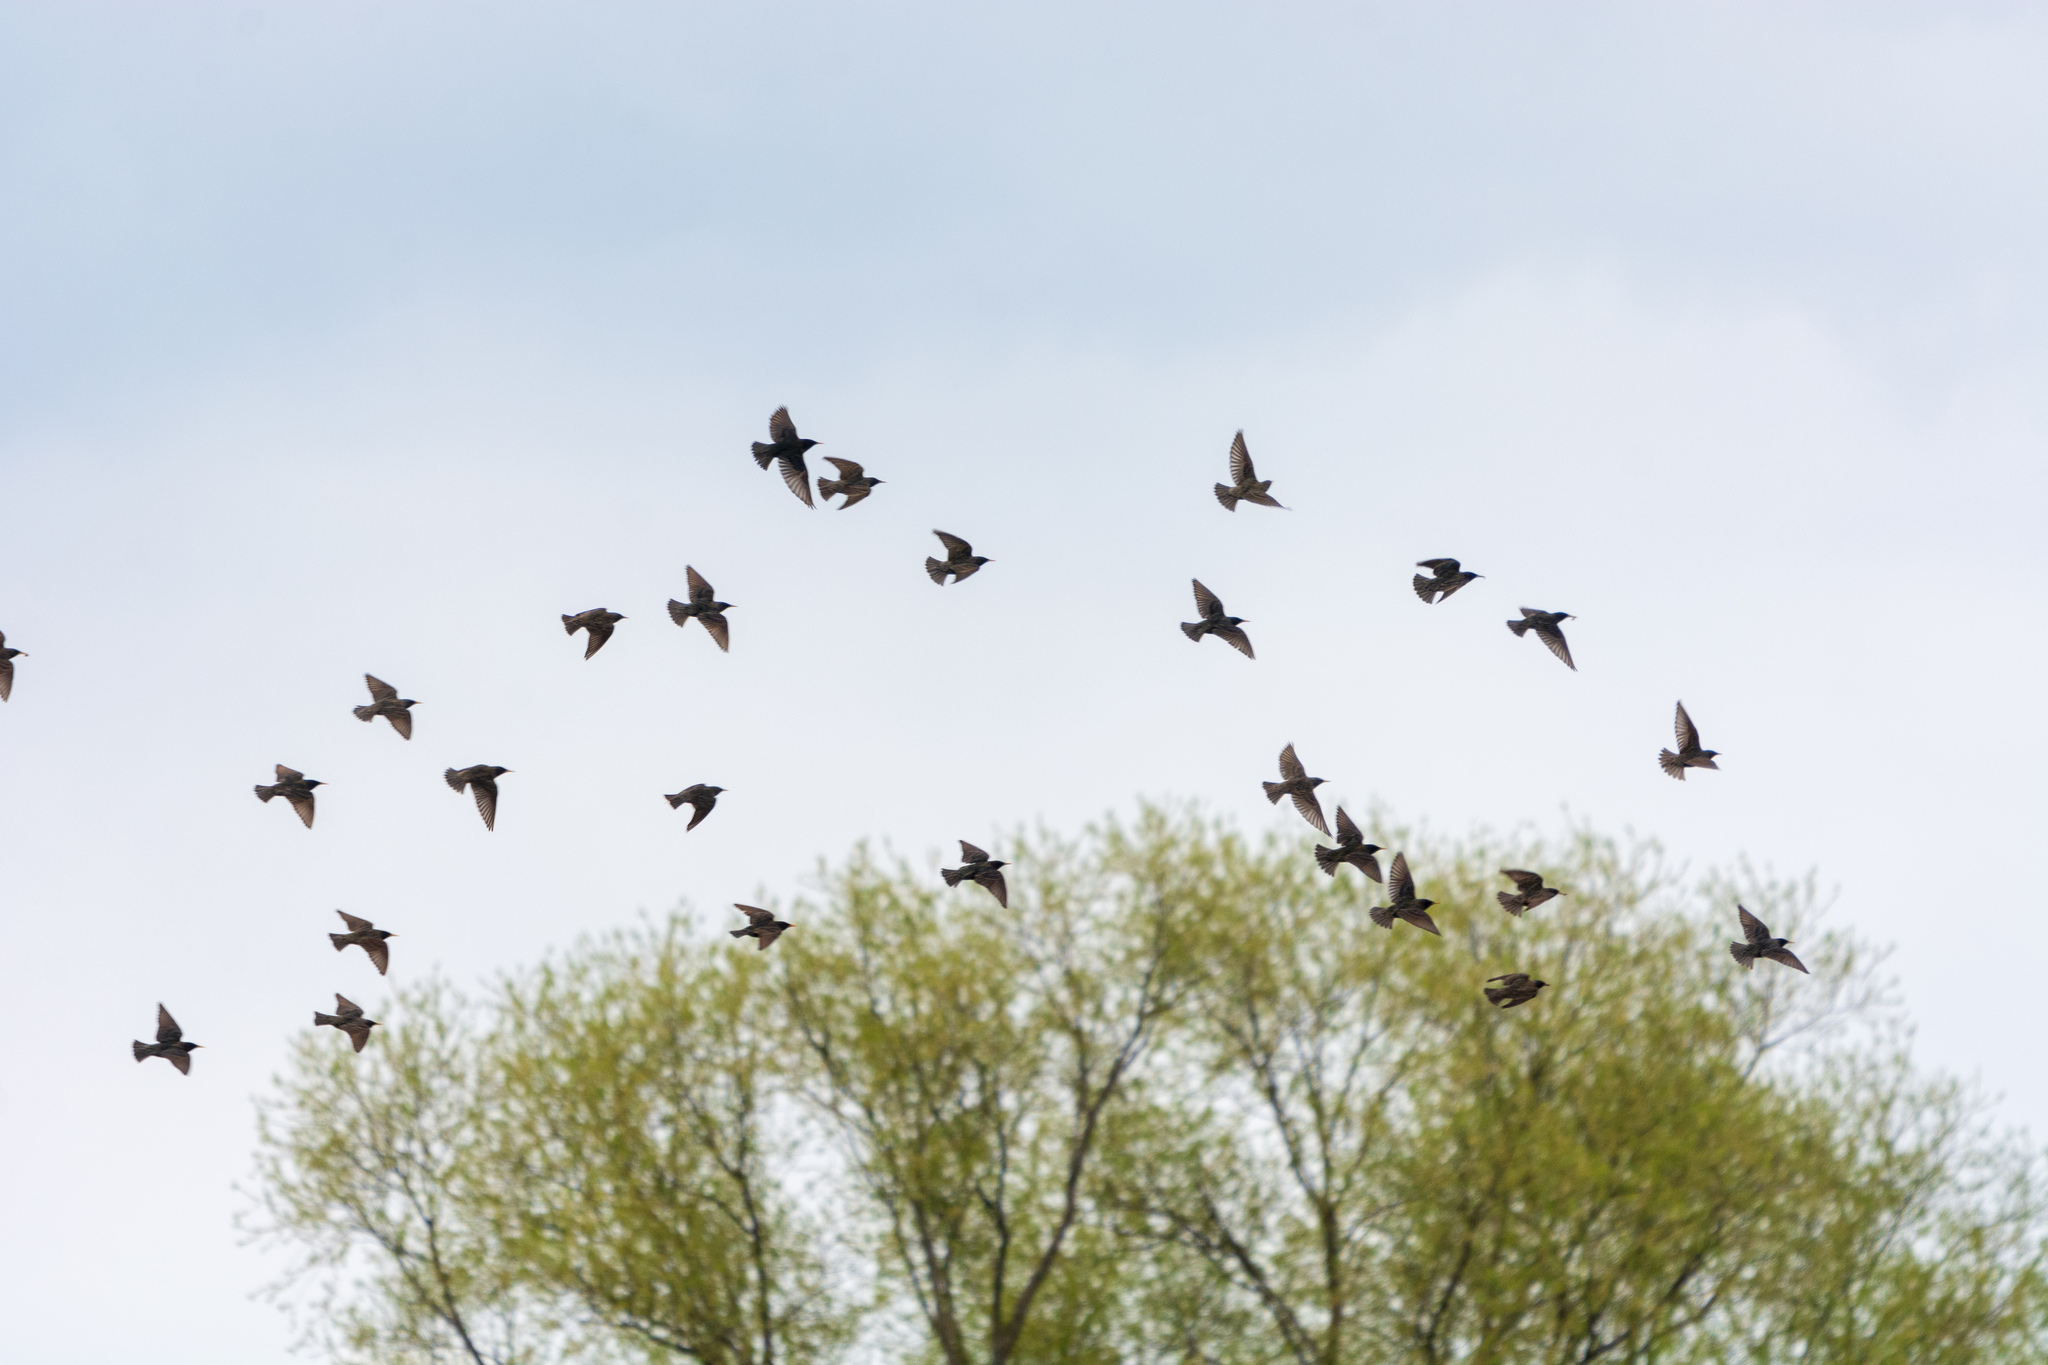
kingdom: Animalia
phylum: Chordata
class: Aves
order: Passeriformes
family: Sturnidae
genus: Sturnus
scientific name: Sturnus vulgaris
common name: Common starling
